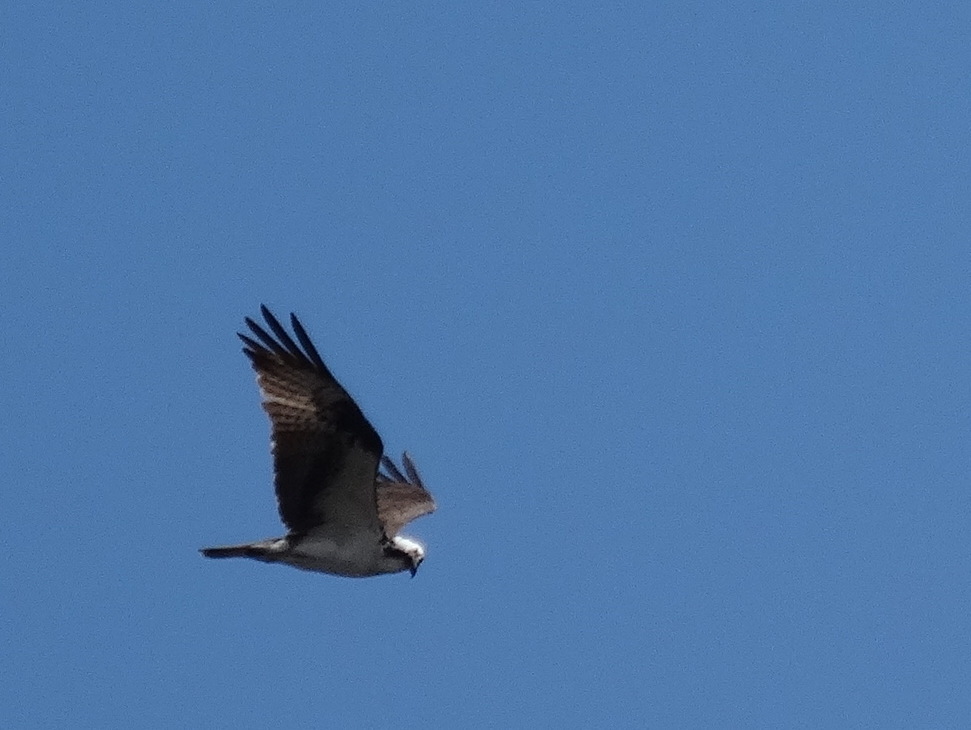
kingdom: Animalia
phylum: Chordata
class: Aves
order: Accipitriformes
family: Pandionidae
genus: Pandion
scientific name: Pandion haliaetus
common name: Osprey
